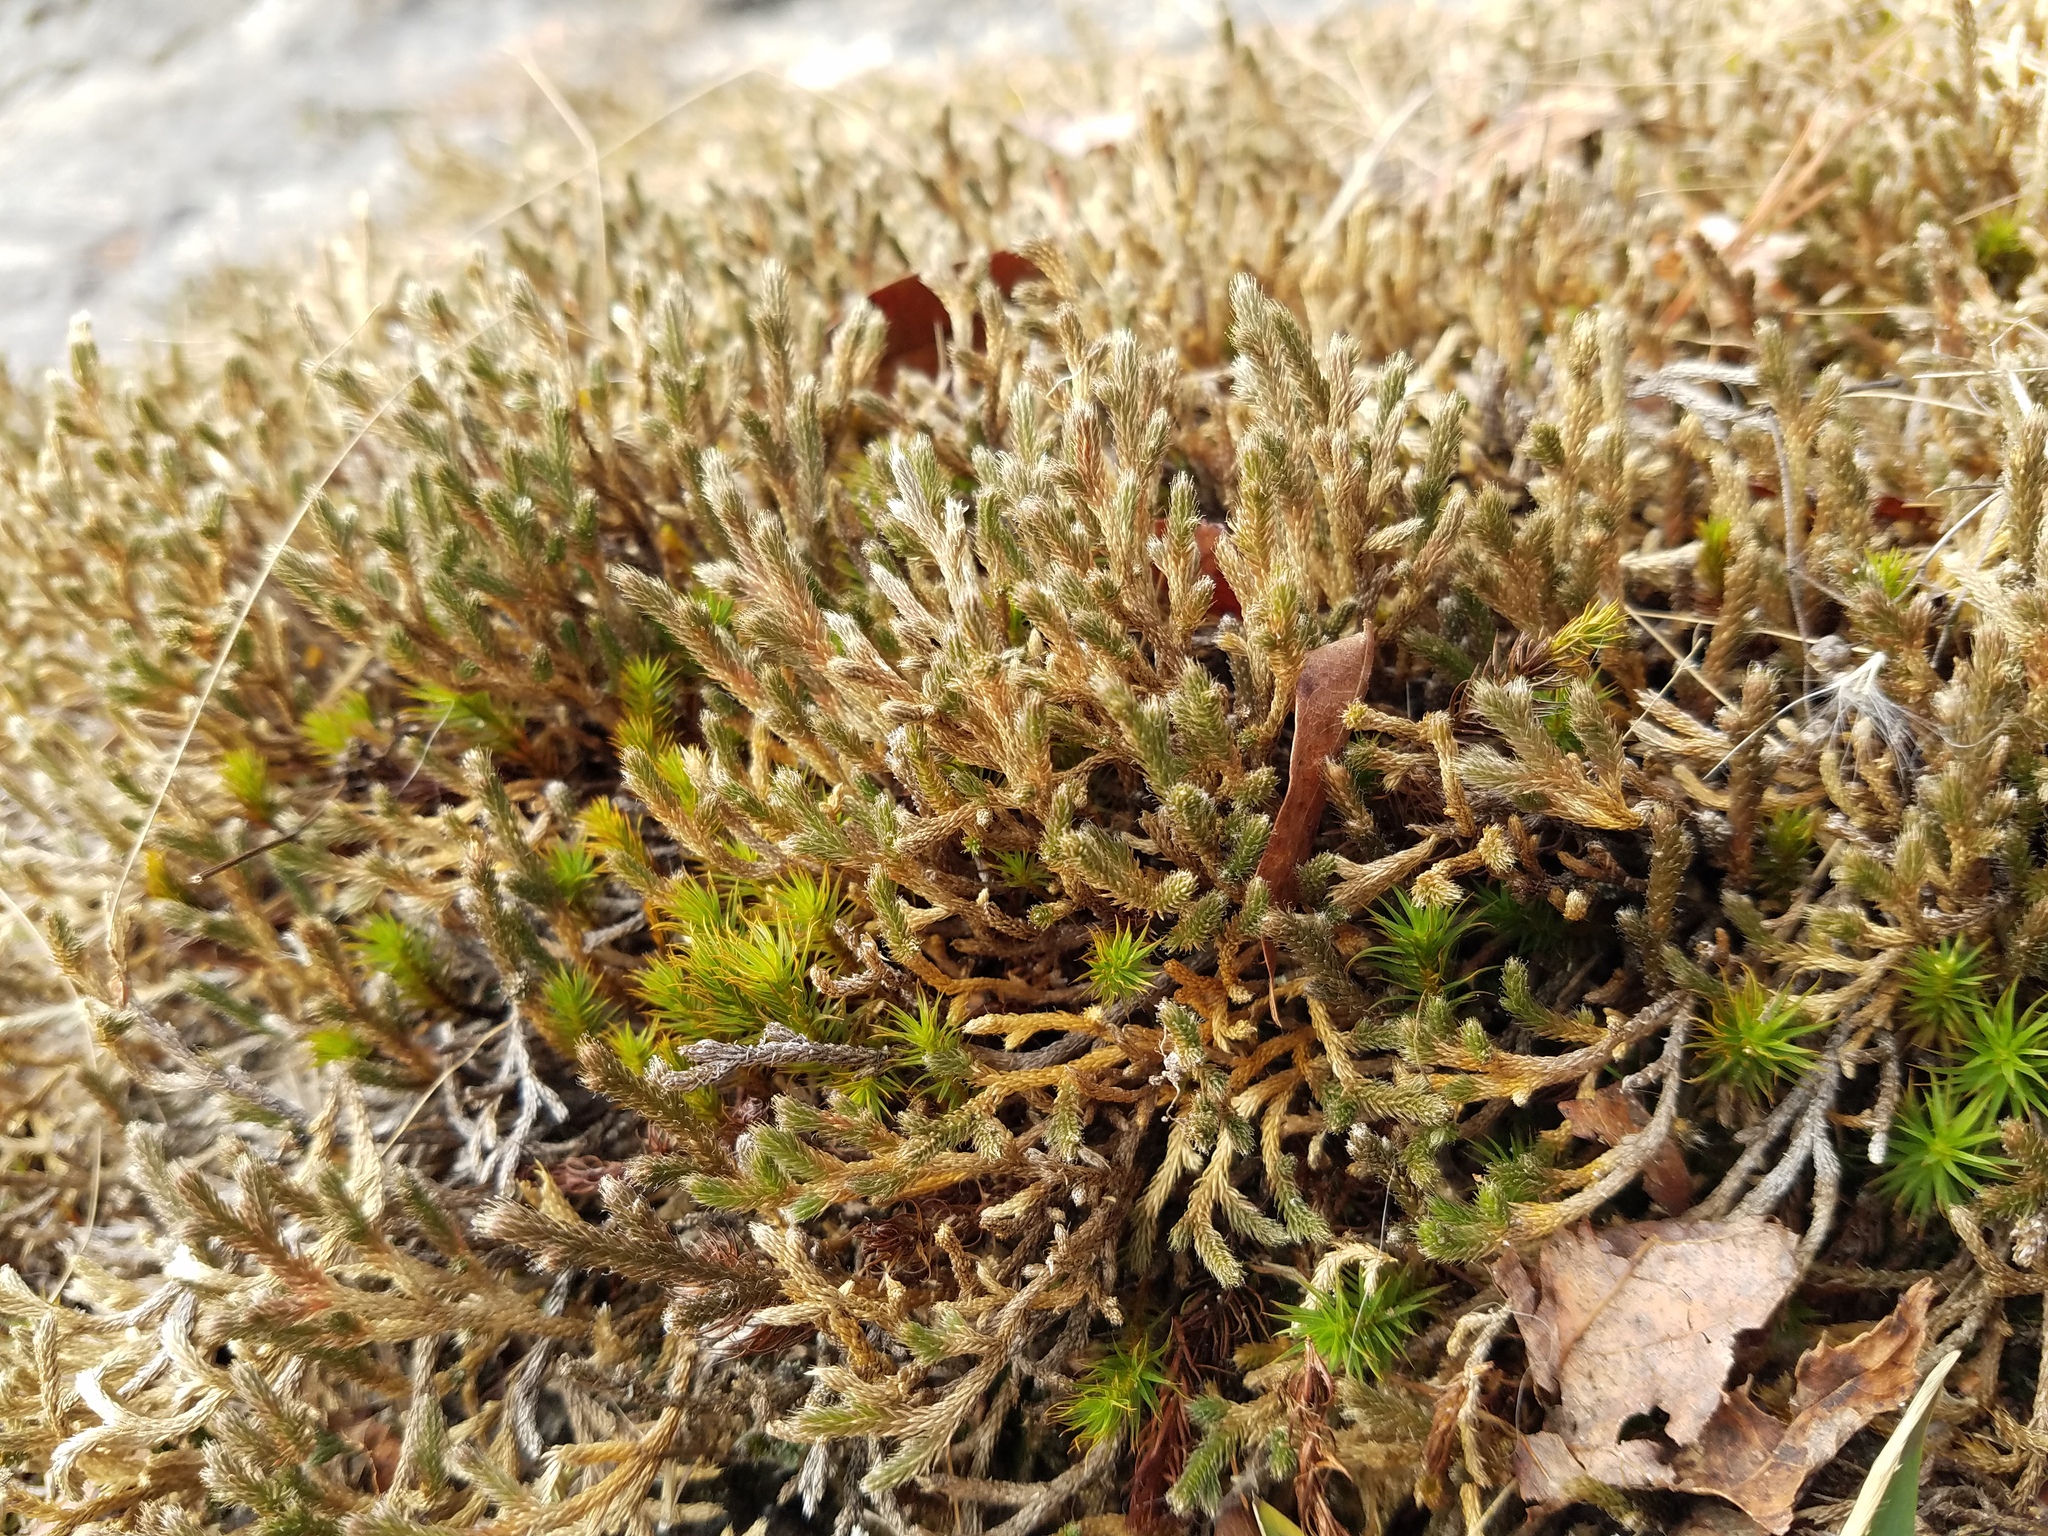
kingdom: Plantae
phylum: Tracheophyta
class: Lycopodiopsida
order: Selaginellales
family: Selaginellaceae
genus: Selaginella
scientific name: Selaginella tortipila
